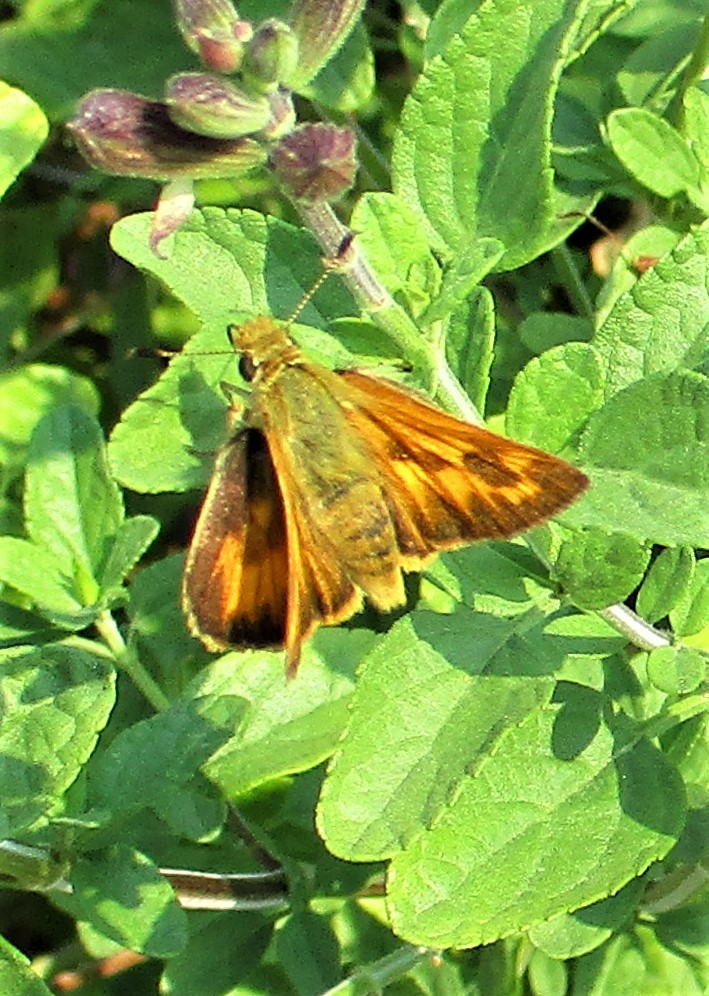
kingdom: Animalia
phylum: Arthropoda
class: Insecta
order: Lepidoptera
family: Hesperiidae
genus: Ochlodes
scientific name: Ochlodes sylvanoides
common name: Woodland skipper
